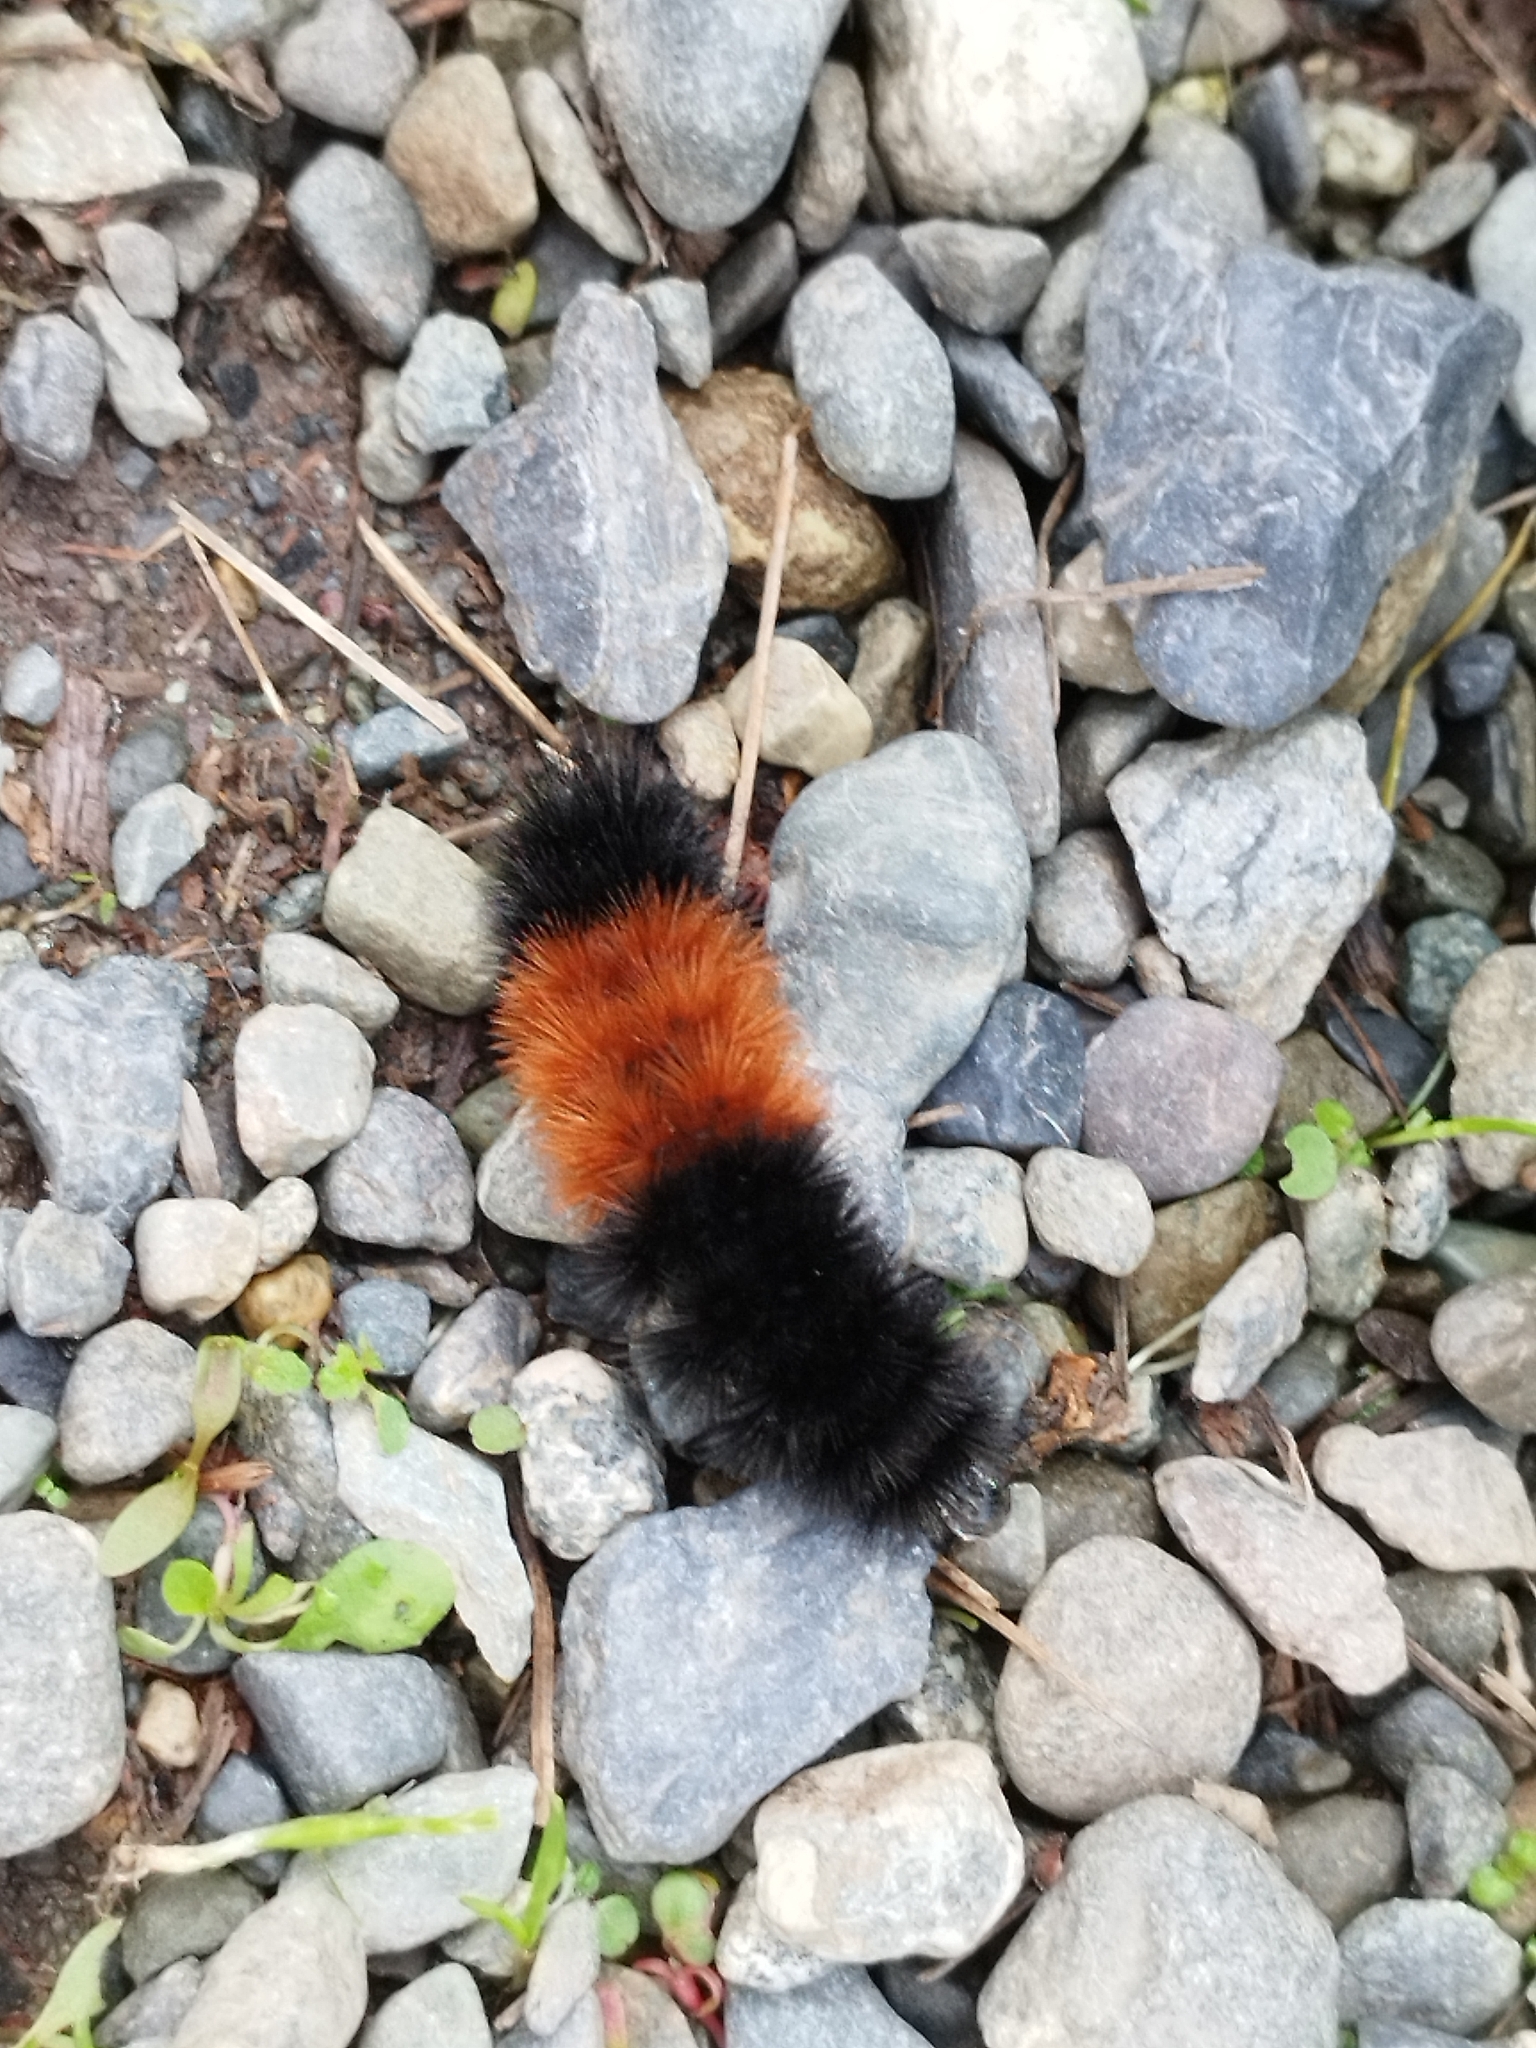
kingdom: Animalia
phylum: Arthropoda
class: Insecta
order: Lepidoptera
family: Erebidae
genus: Pyrrharctia
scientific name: Pyrrharctia isabella
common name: Isabella tiger moth
